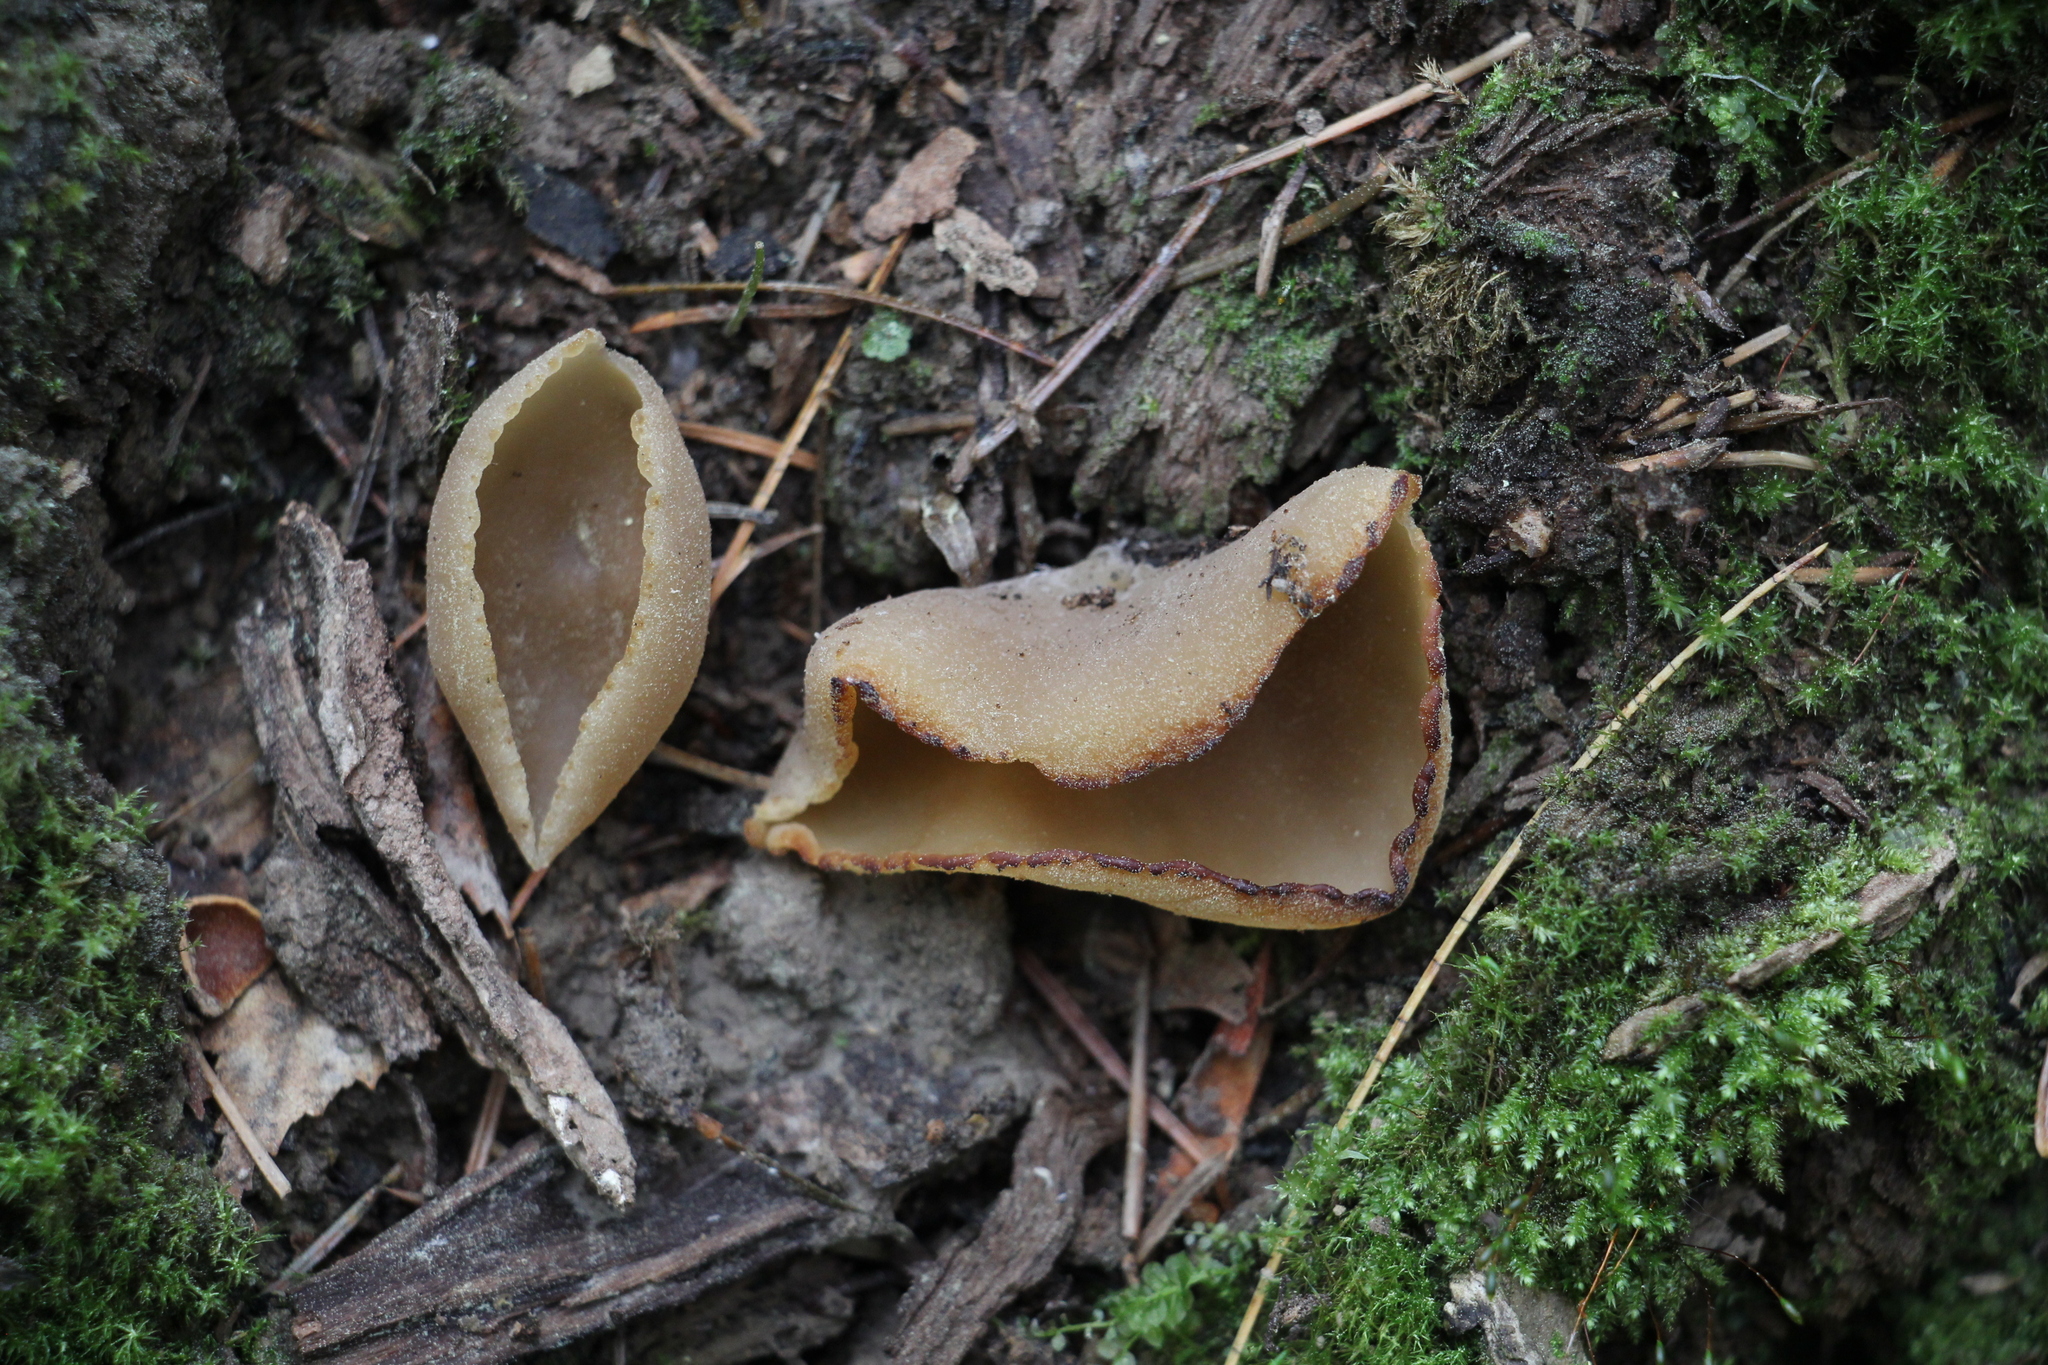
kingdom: Fungi
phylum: Ascomycota
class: Pezizomycetes
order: Pezizales
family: Pezizaceae
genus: Peziza
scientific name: Peziza varia
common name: Layered cup
